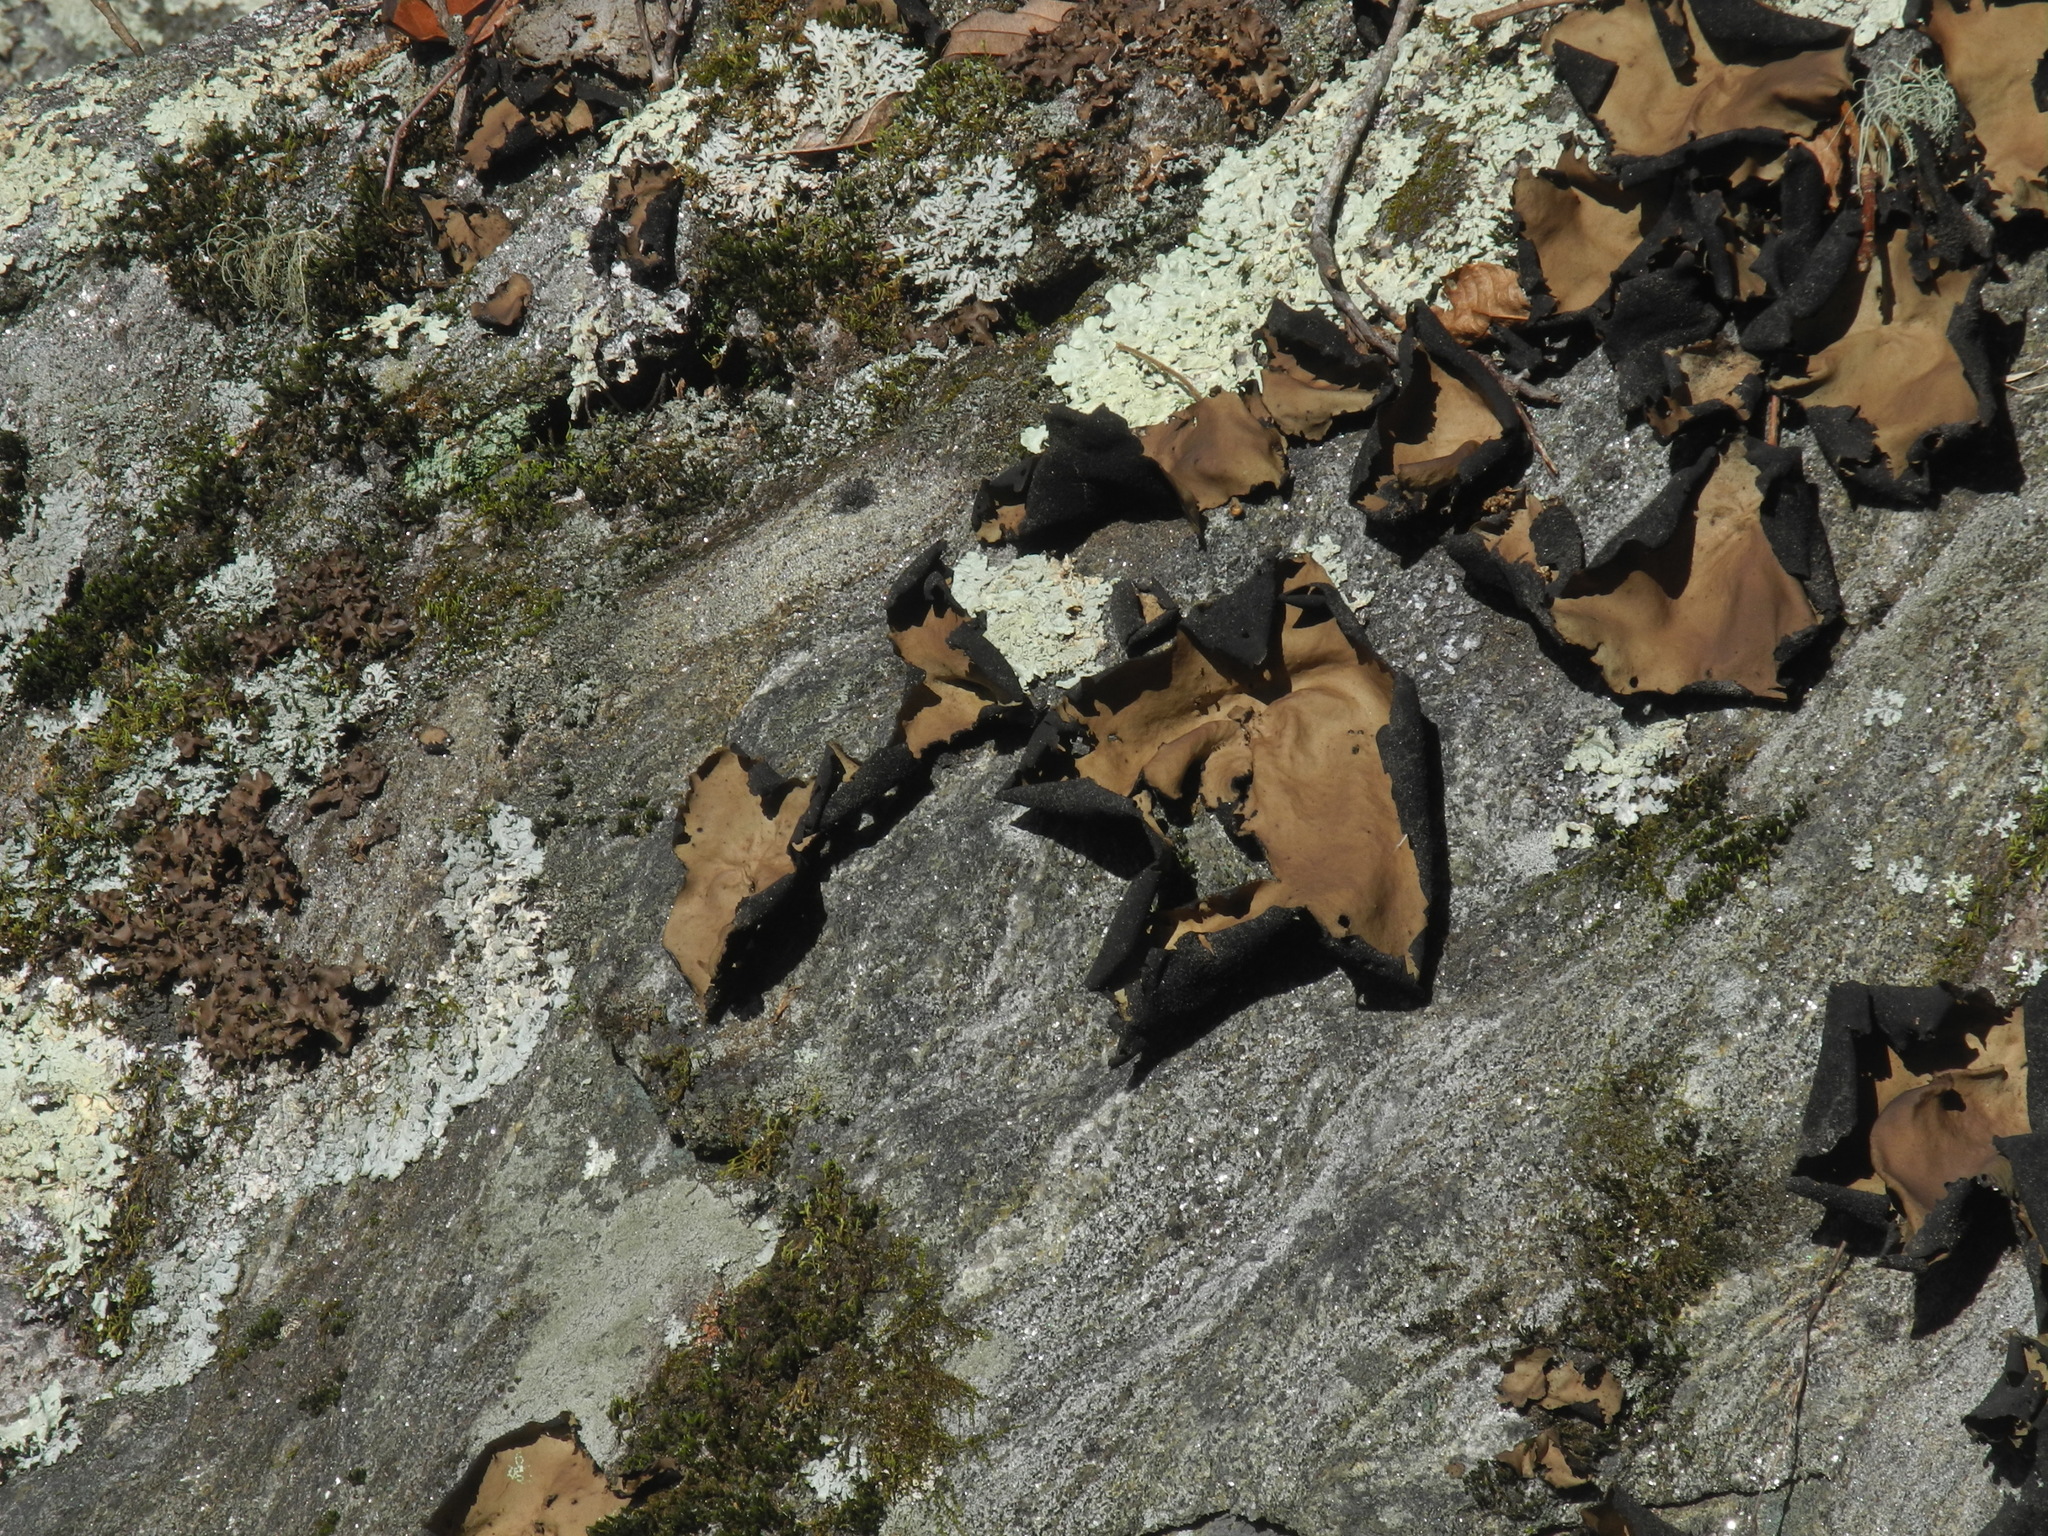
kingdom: Fungi
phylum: Ascomycota
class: Lecanoromycetes
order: Umbilicariales
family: Umbilicariaceae
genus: Umbilicaria
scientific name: Umbilicaria mammulata
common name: Smooth rock tripe
